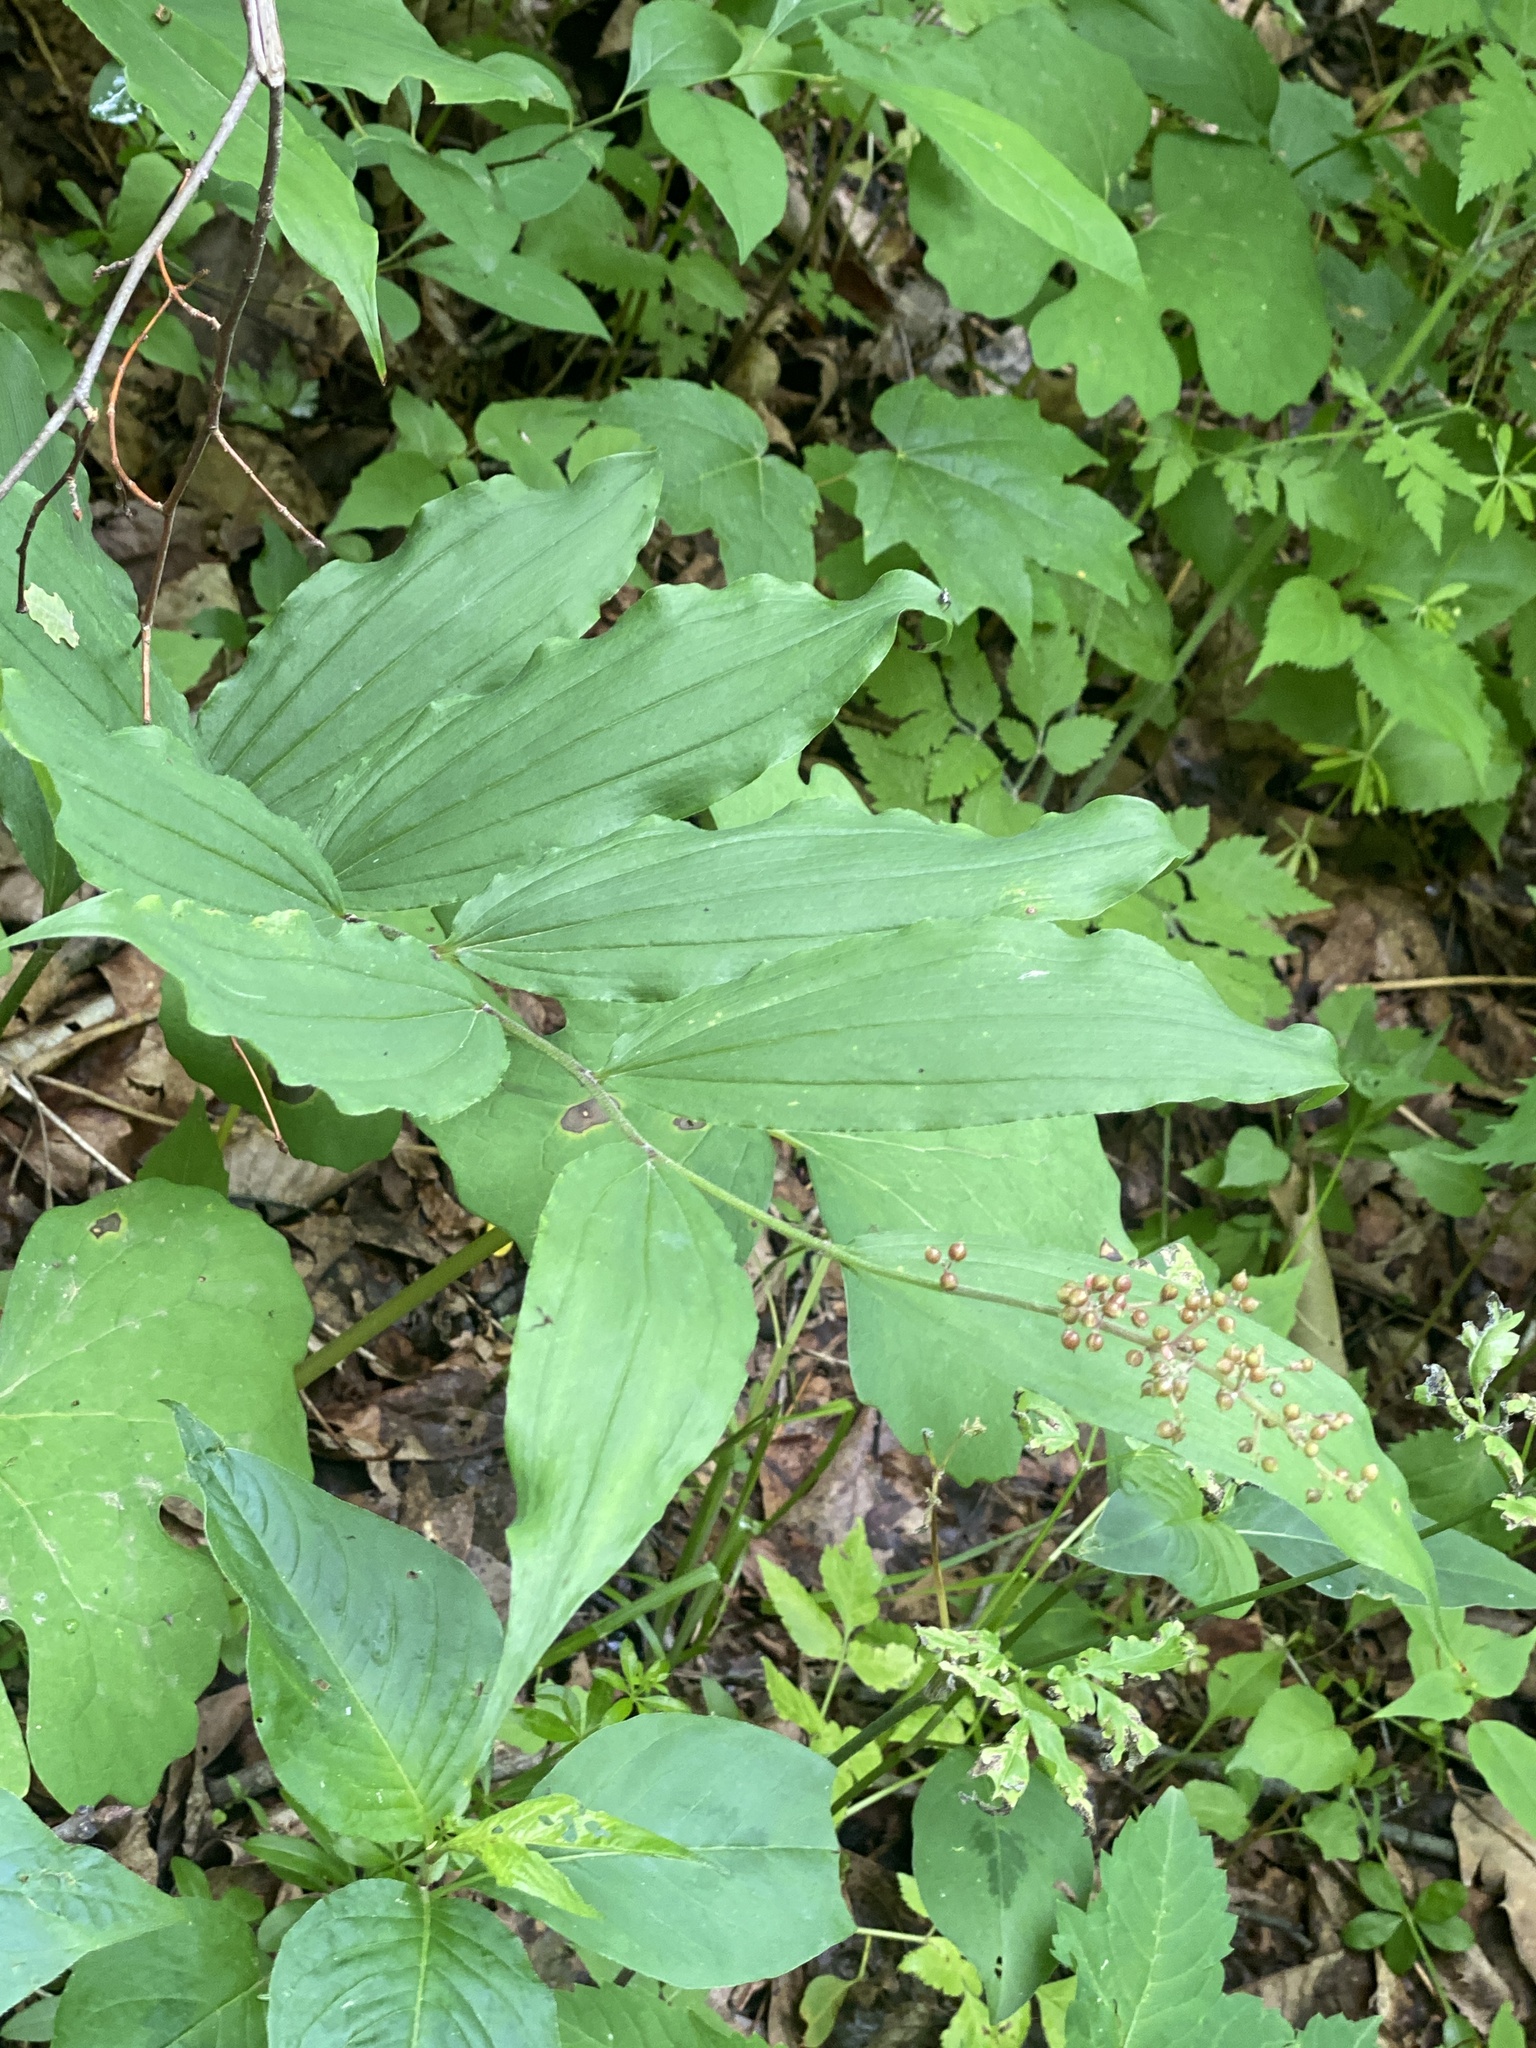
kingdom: Plantae
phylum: Tracheophyta
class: Liliopsida
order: Asparagales
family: Asparagaceae
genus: Maianthemum
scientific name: Maianthemum racemosum
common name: False spikenard
